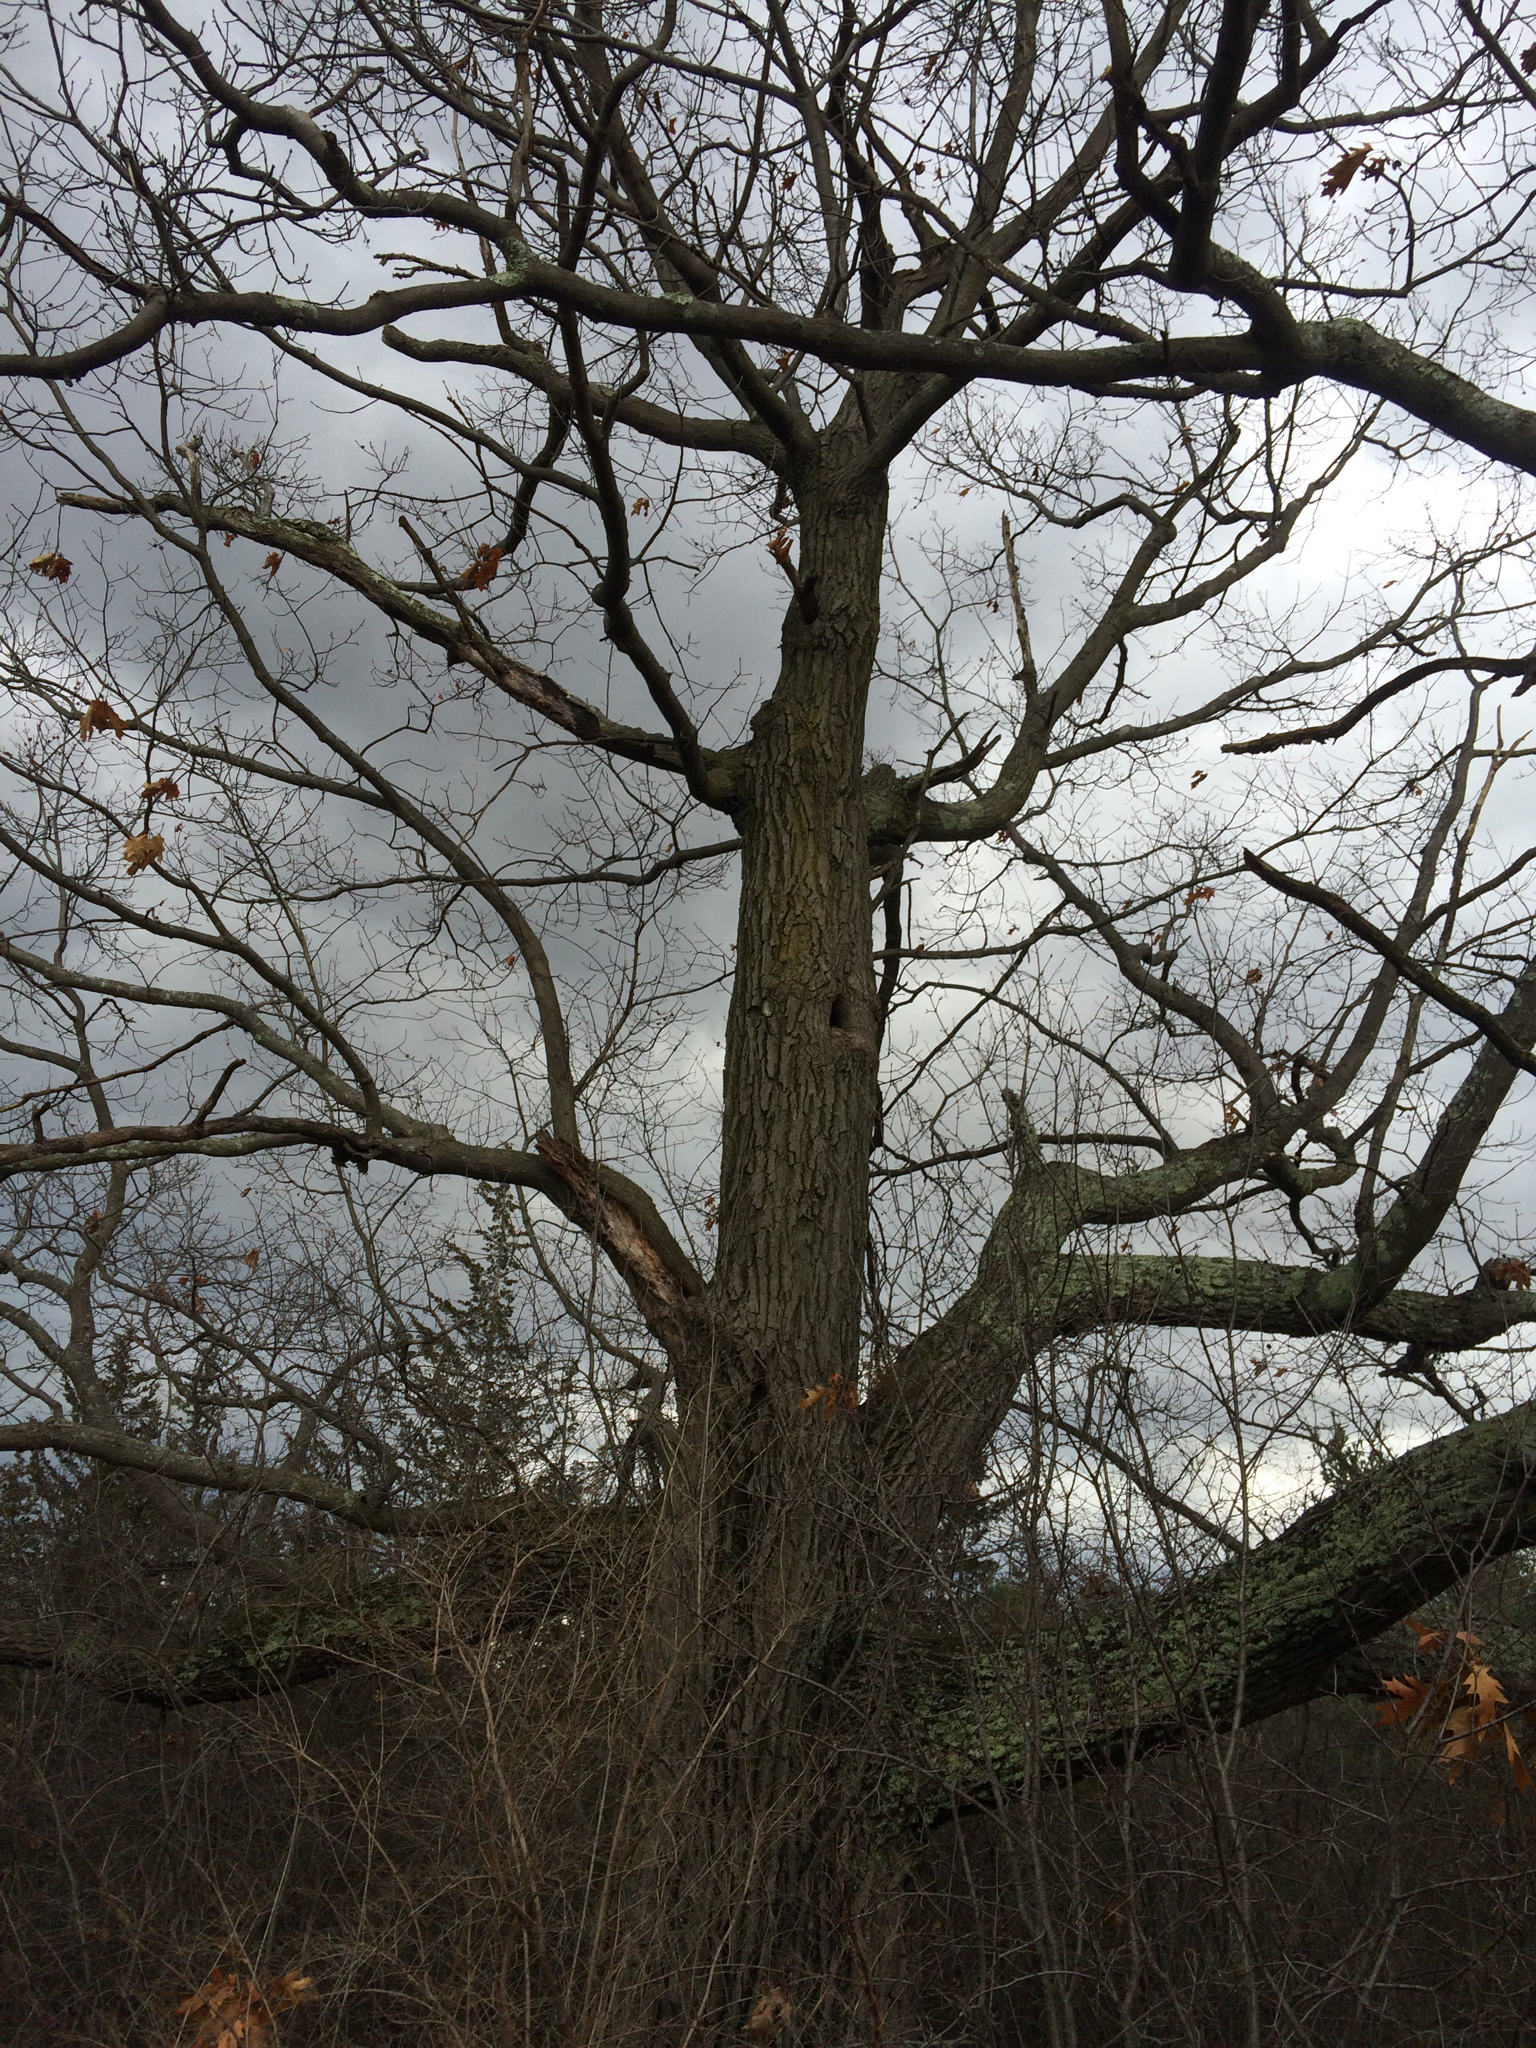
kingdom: Plantae
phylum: Tracheophyta
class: Magnoliopsida
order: Fagales
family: Fagaceae
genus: Quercus
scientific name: Quercus rubra
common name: Red oak
